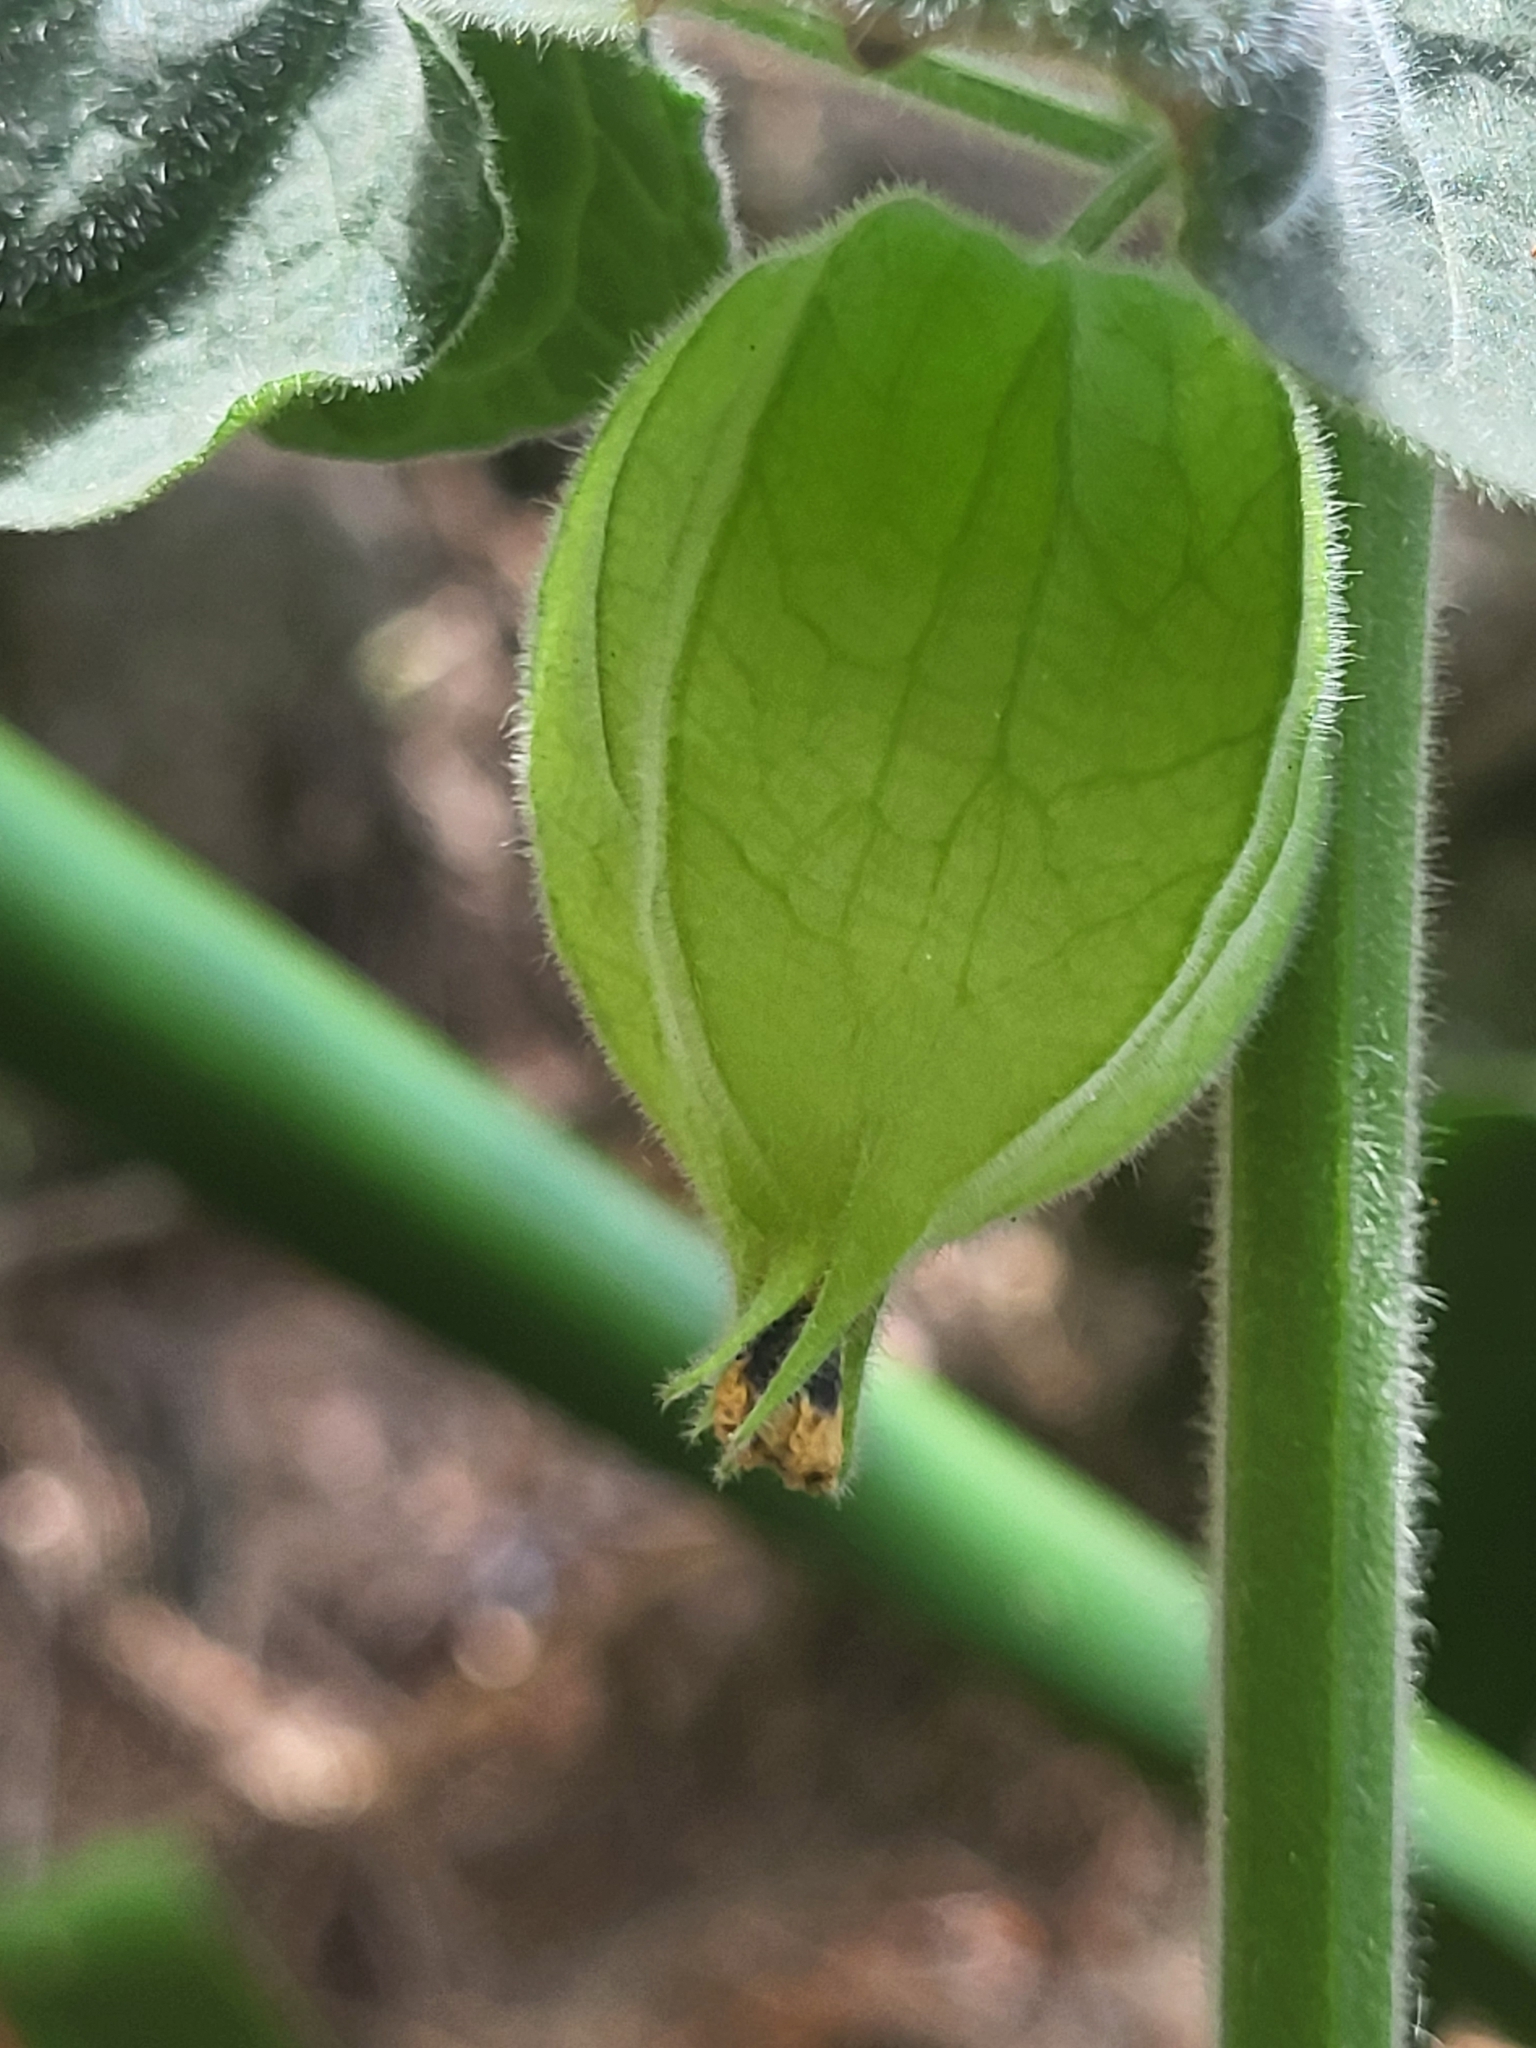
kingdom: Plantae
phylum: Tracheophyta
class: Magnoliopsida
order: Solanales
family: Solanaceae
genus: Physalis
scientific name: Physalis peruviana
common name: Cape-gooseberry
